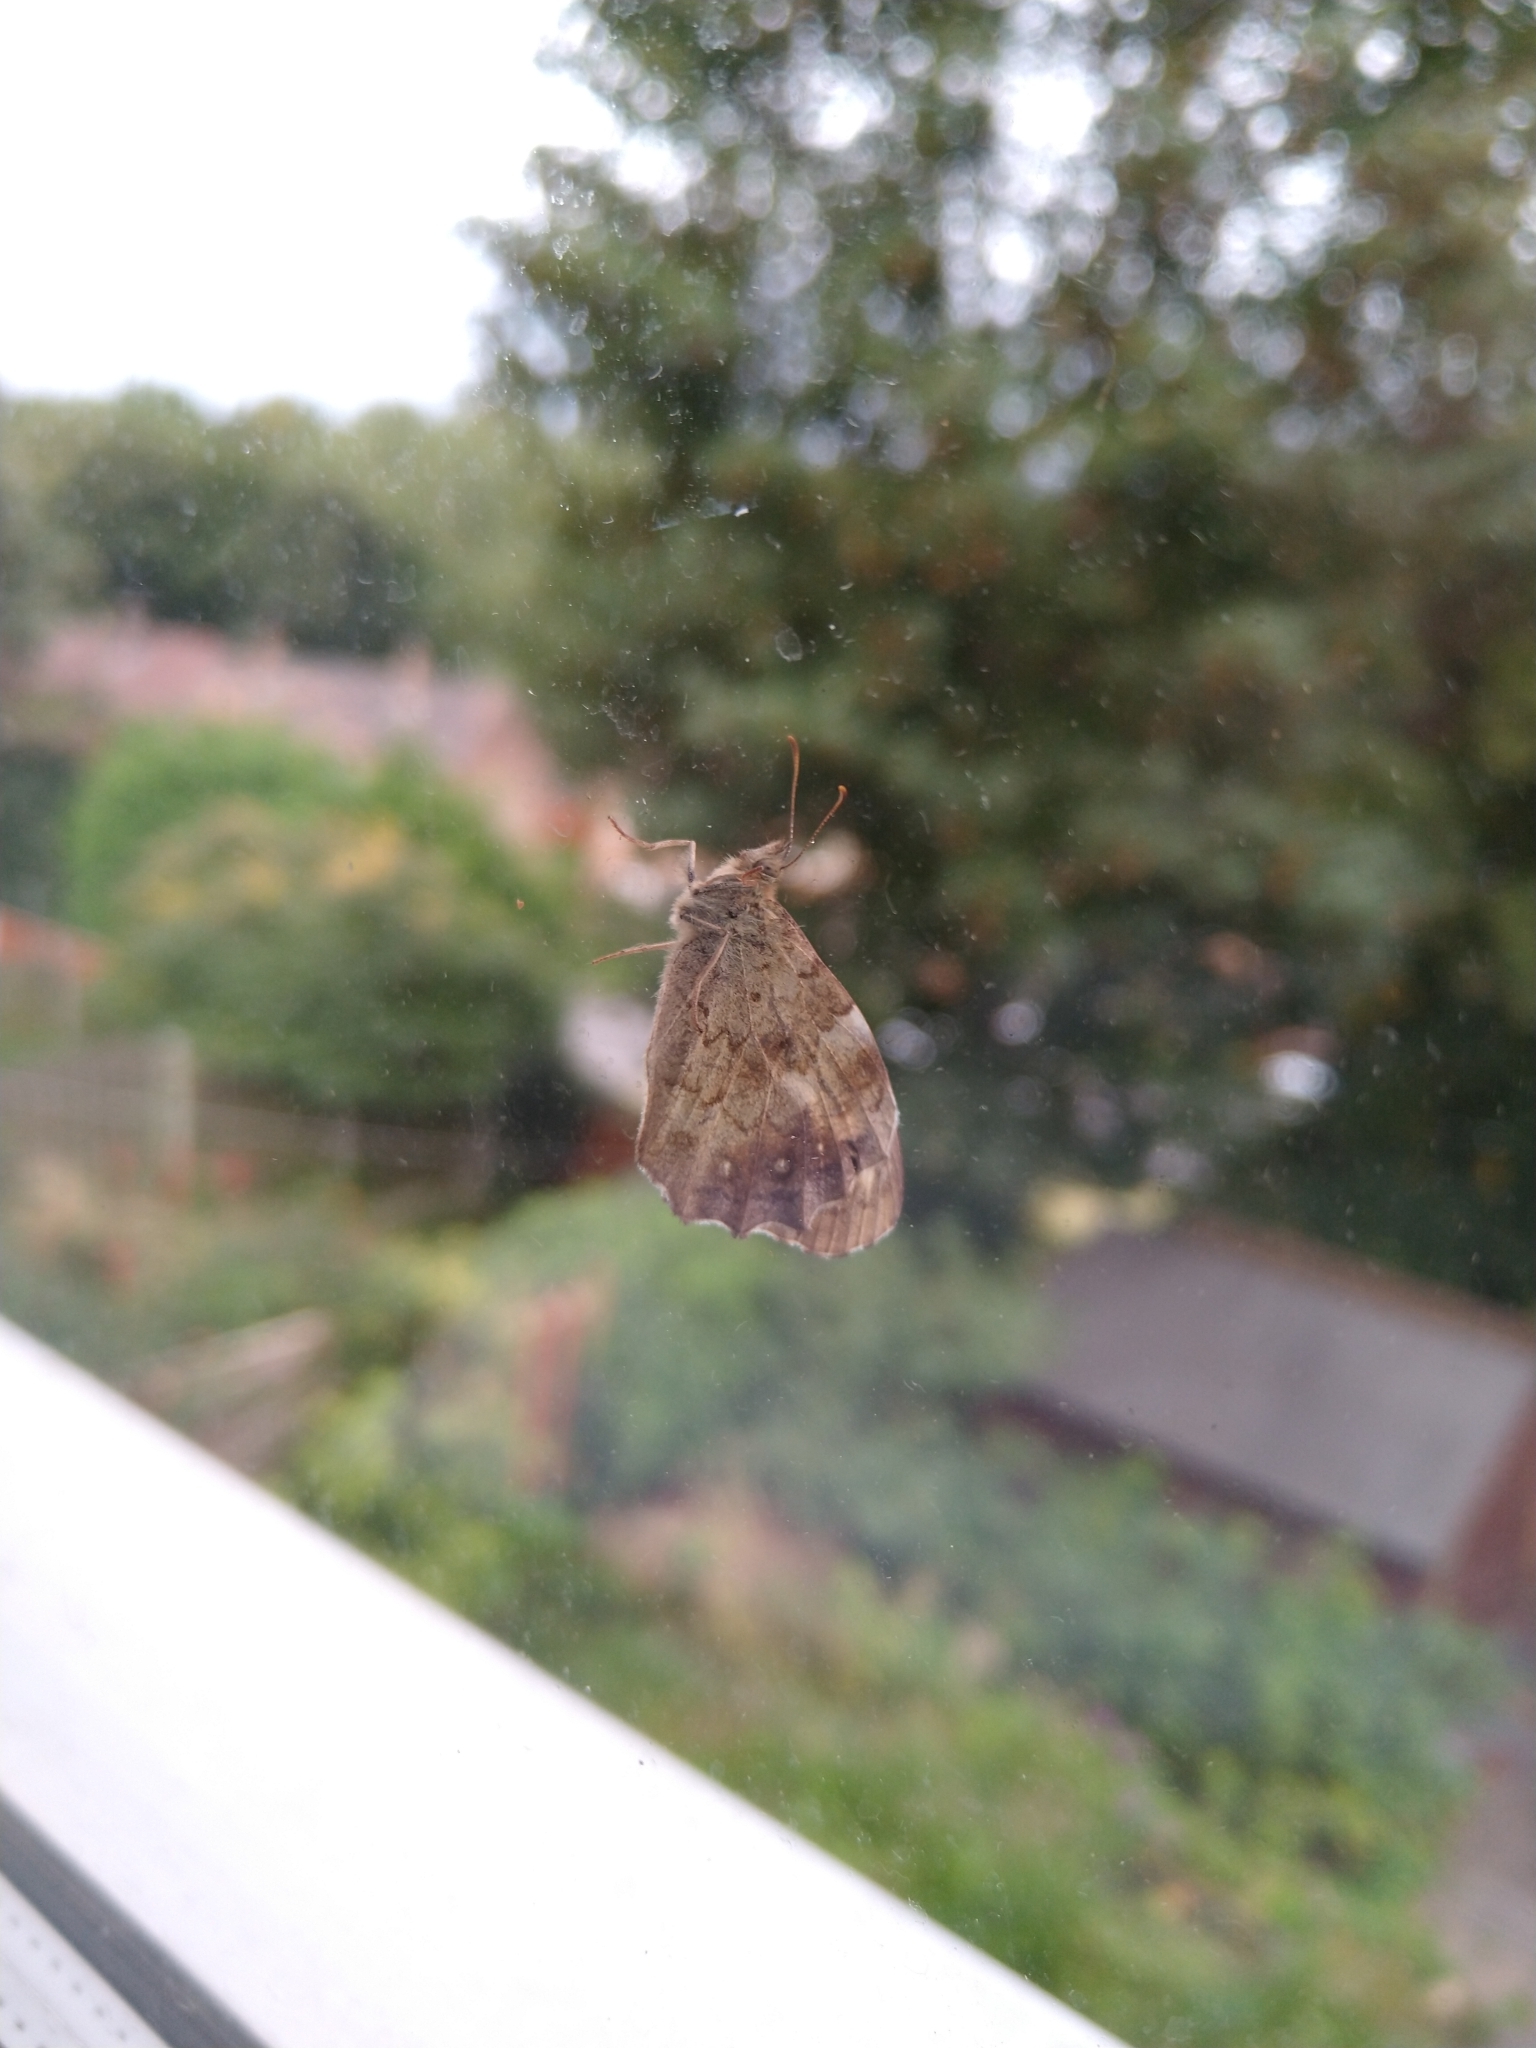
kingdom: Animalia
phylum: Arthropoda
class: Insecta
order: Lepidoptera
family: Nymphalidae
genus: Pararge
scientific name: Pararge aegeria
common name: Speckled wood
